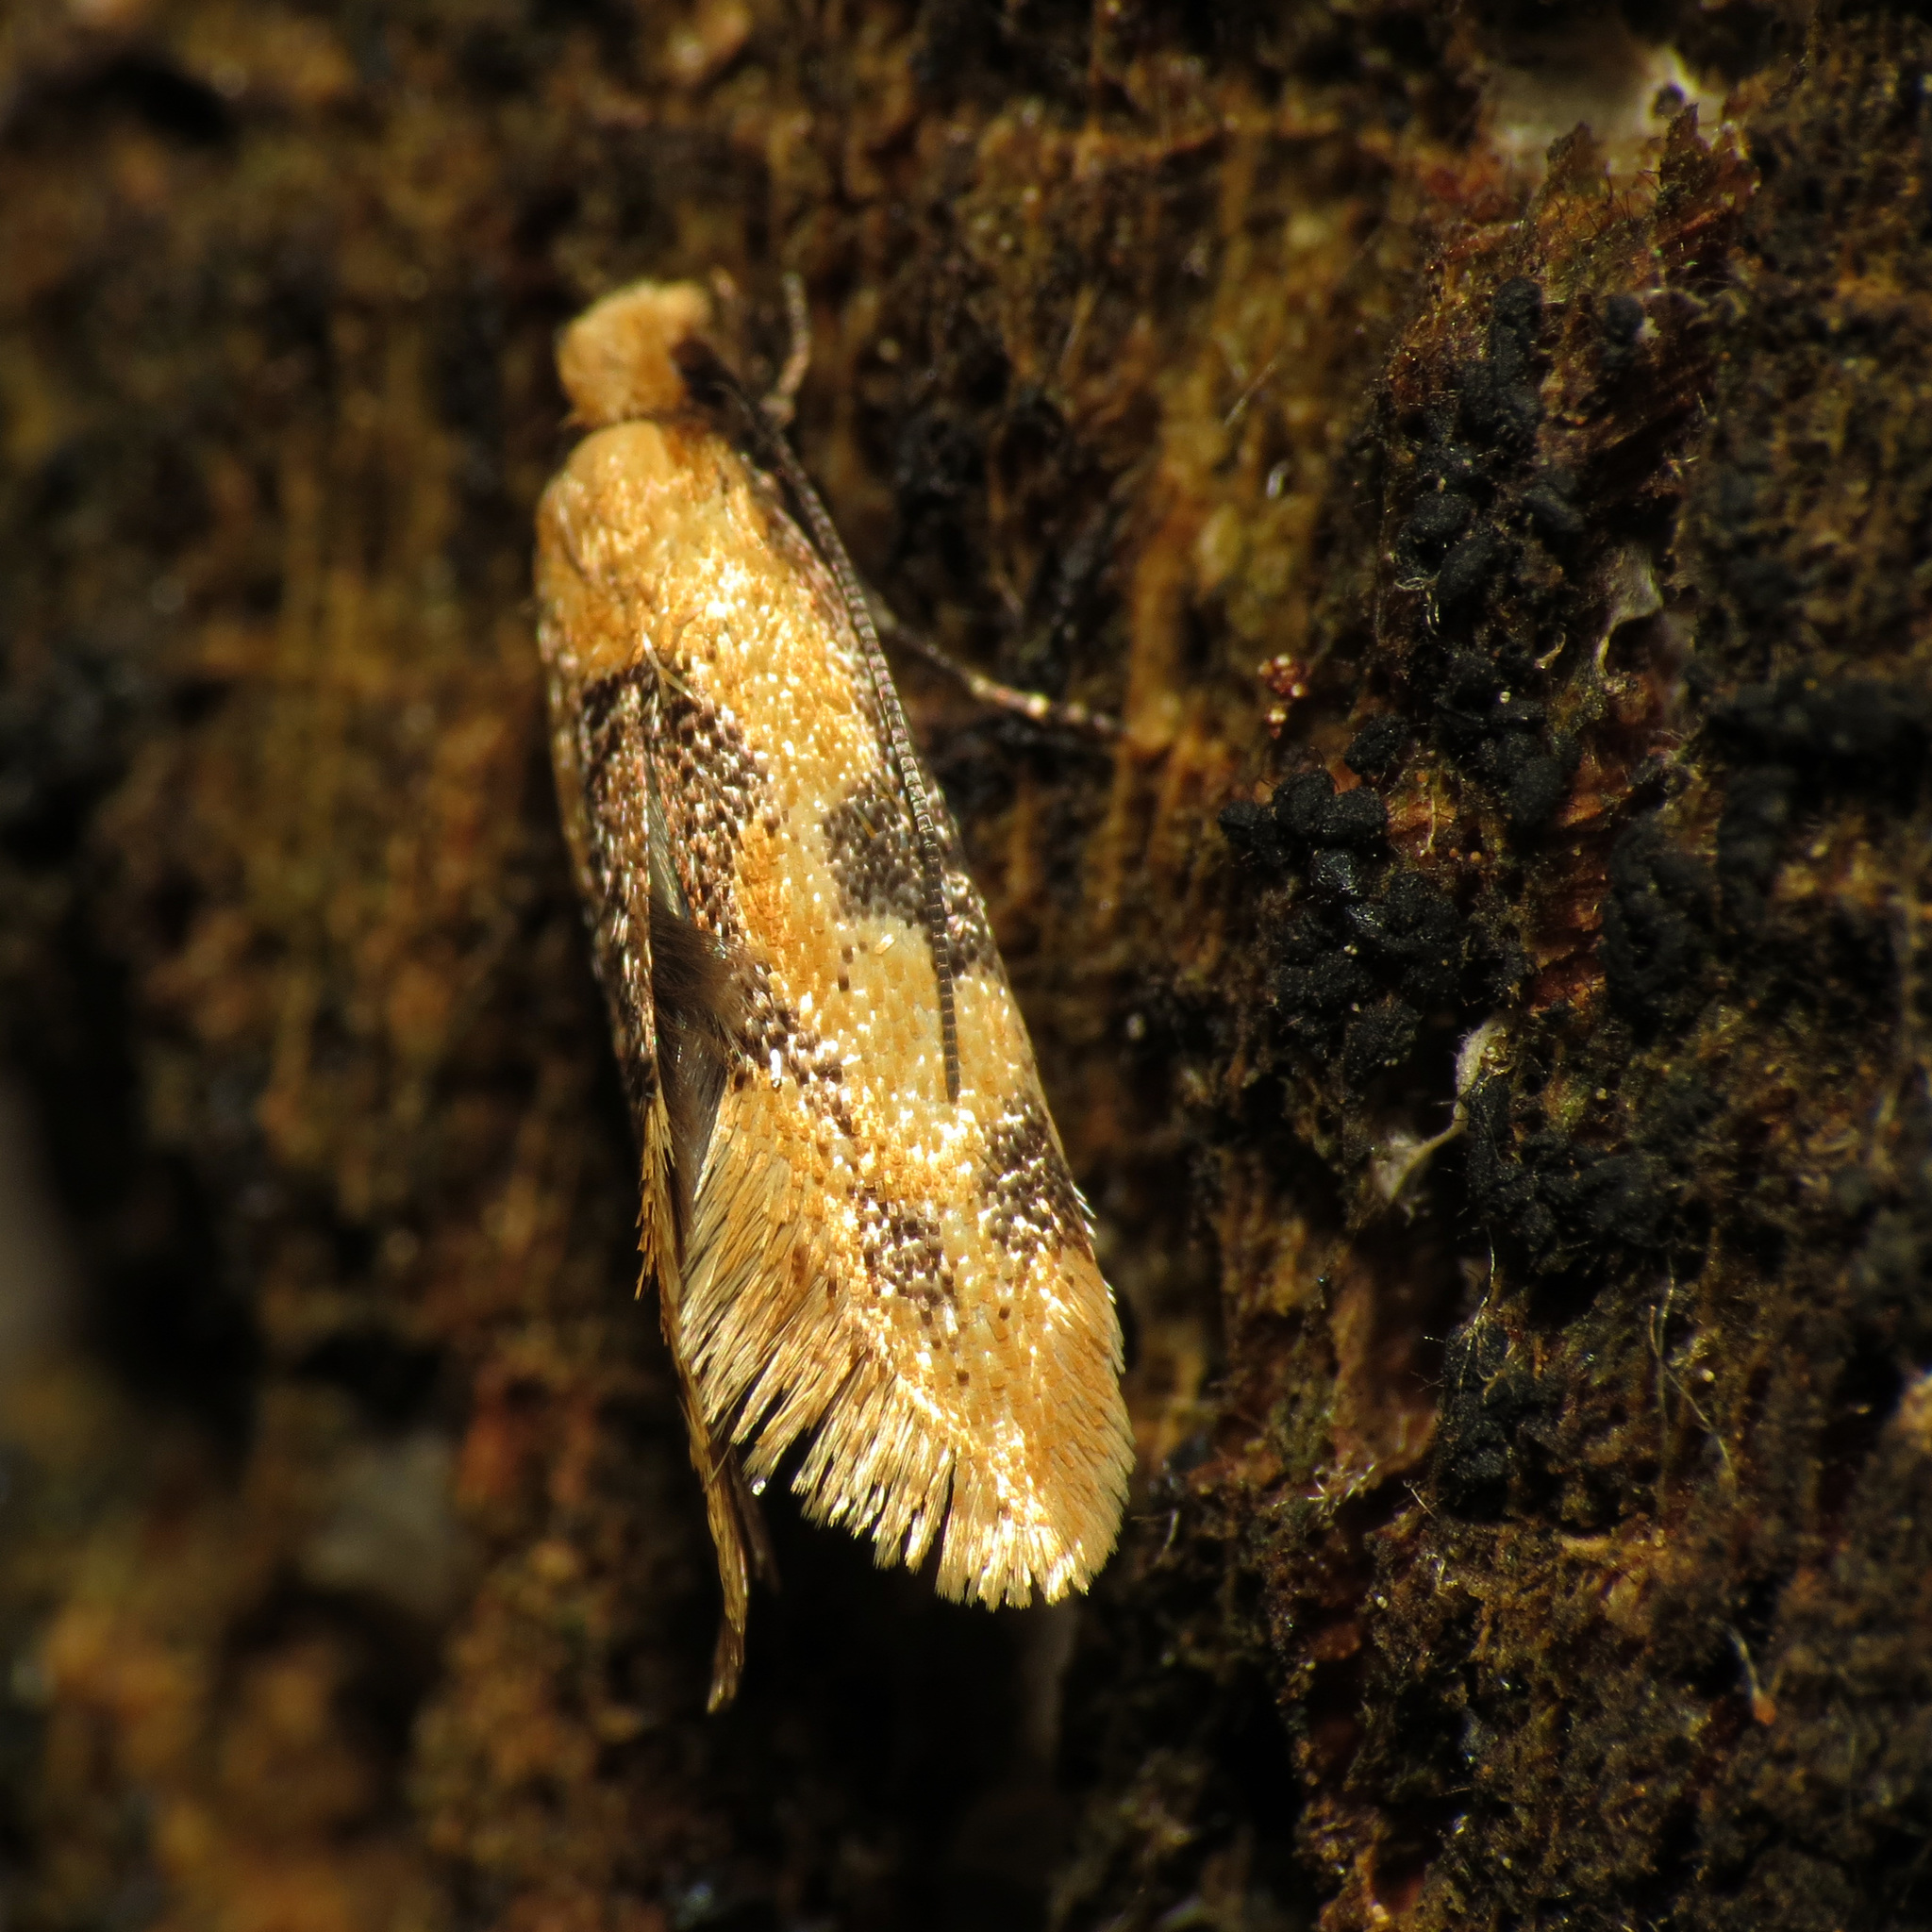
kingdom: Animalia
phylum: Arthropoda
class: Insecta
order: Lepidoptera
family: Meessiidae
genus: Hybroma
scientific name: Hybroma servulella
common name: Yellow wave moth
